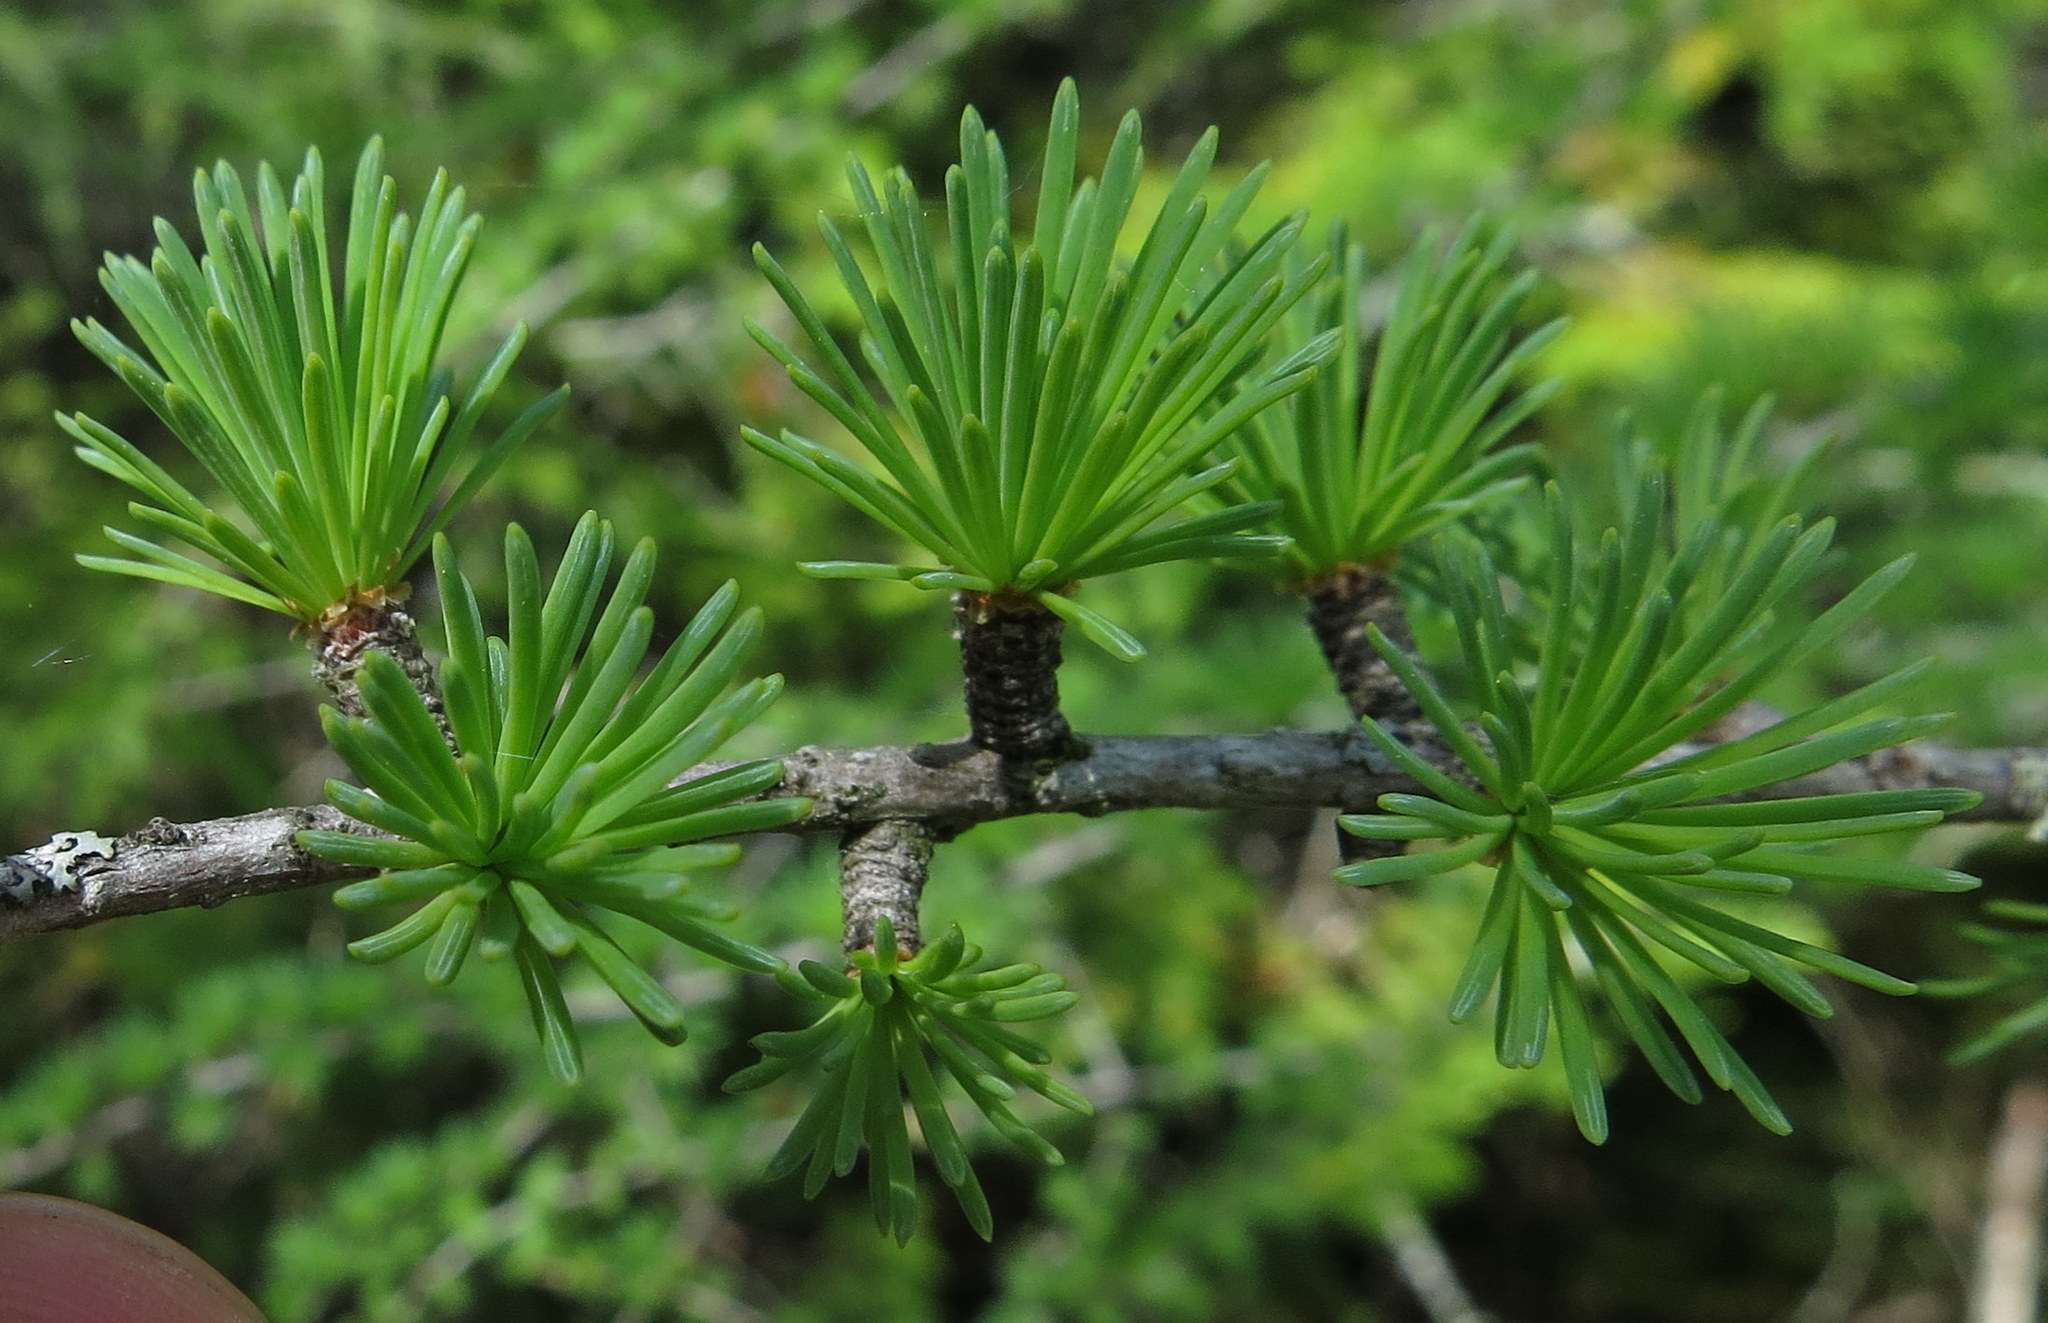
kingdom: Plantae
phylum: Tracheophyta
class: Pinopsida
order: Pinales
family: Pinaceae
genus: Larix
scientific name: Larix laricina
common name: American larch
